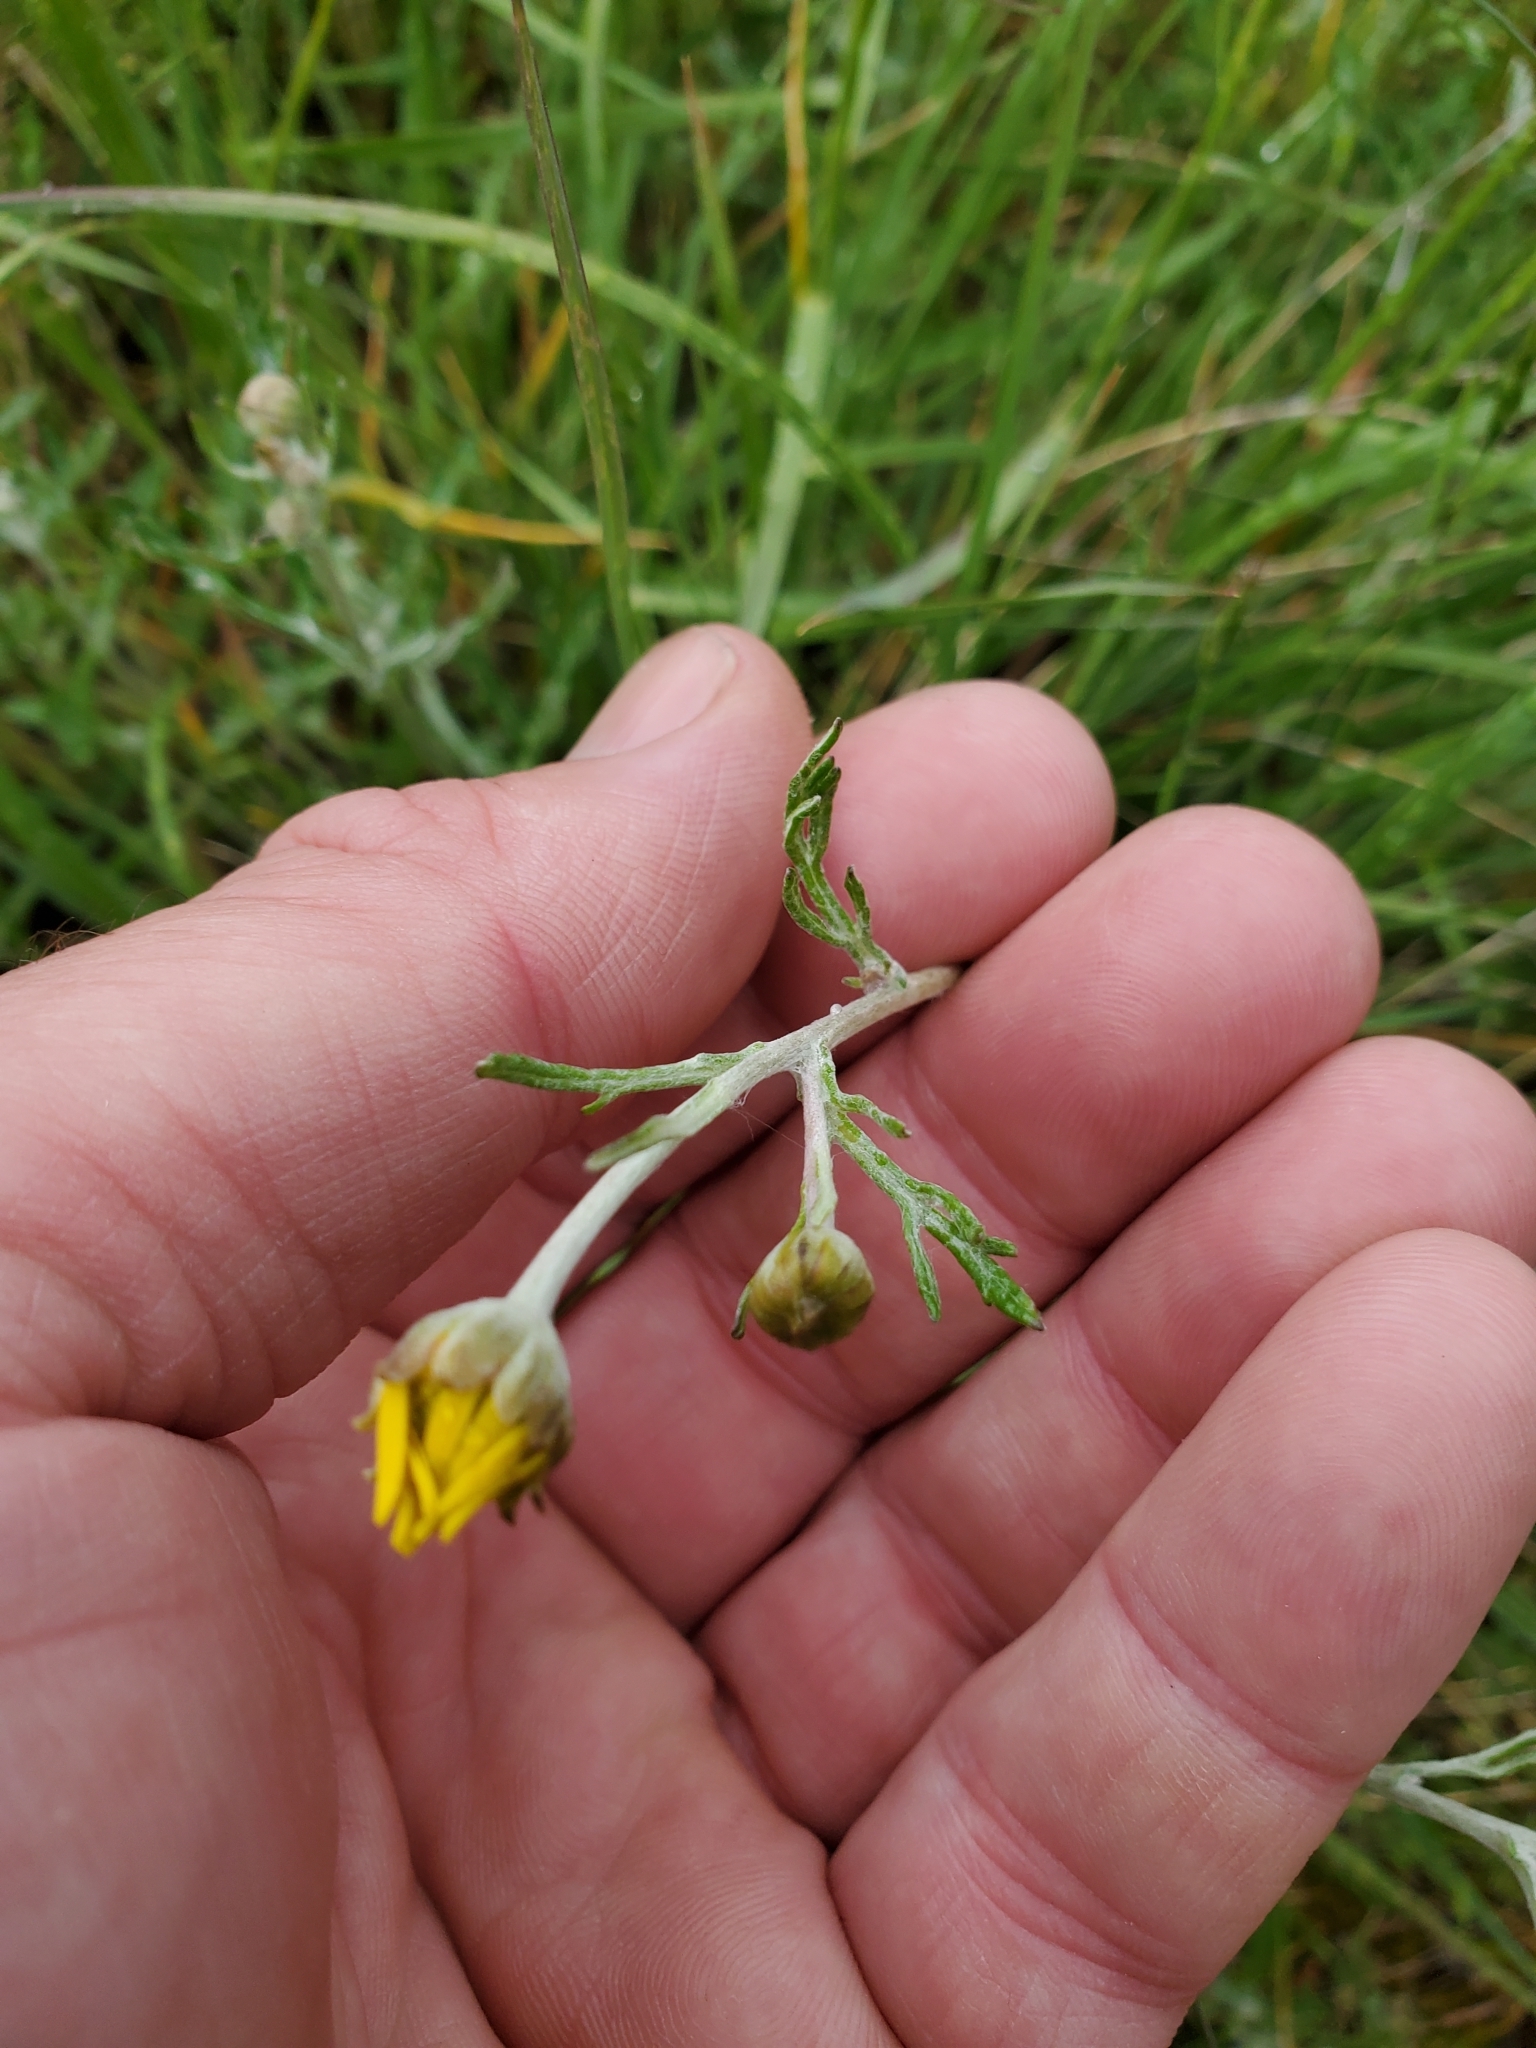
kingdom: Plantae
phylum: Tracheophyta
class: Magnoliopsida
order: Asterales
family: Asteraceae
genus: Eriophyllum
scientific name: Eriophyllum lanatum
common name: Common woolly-sunflower
